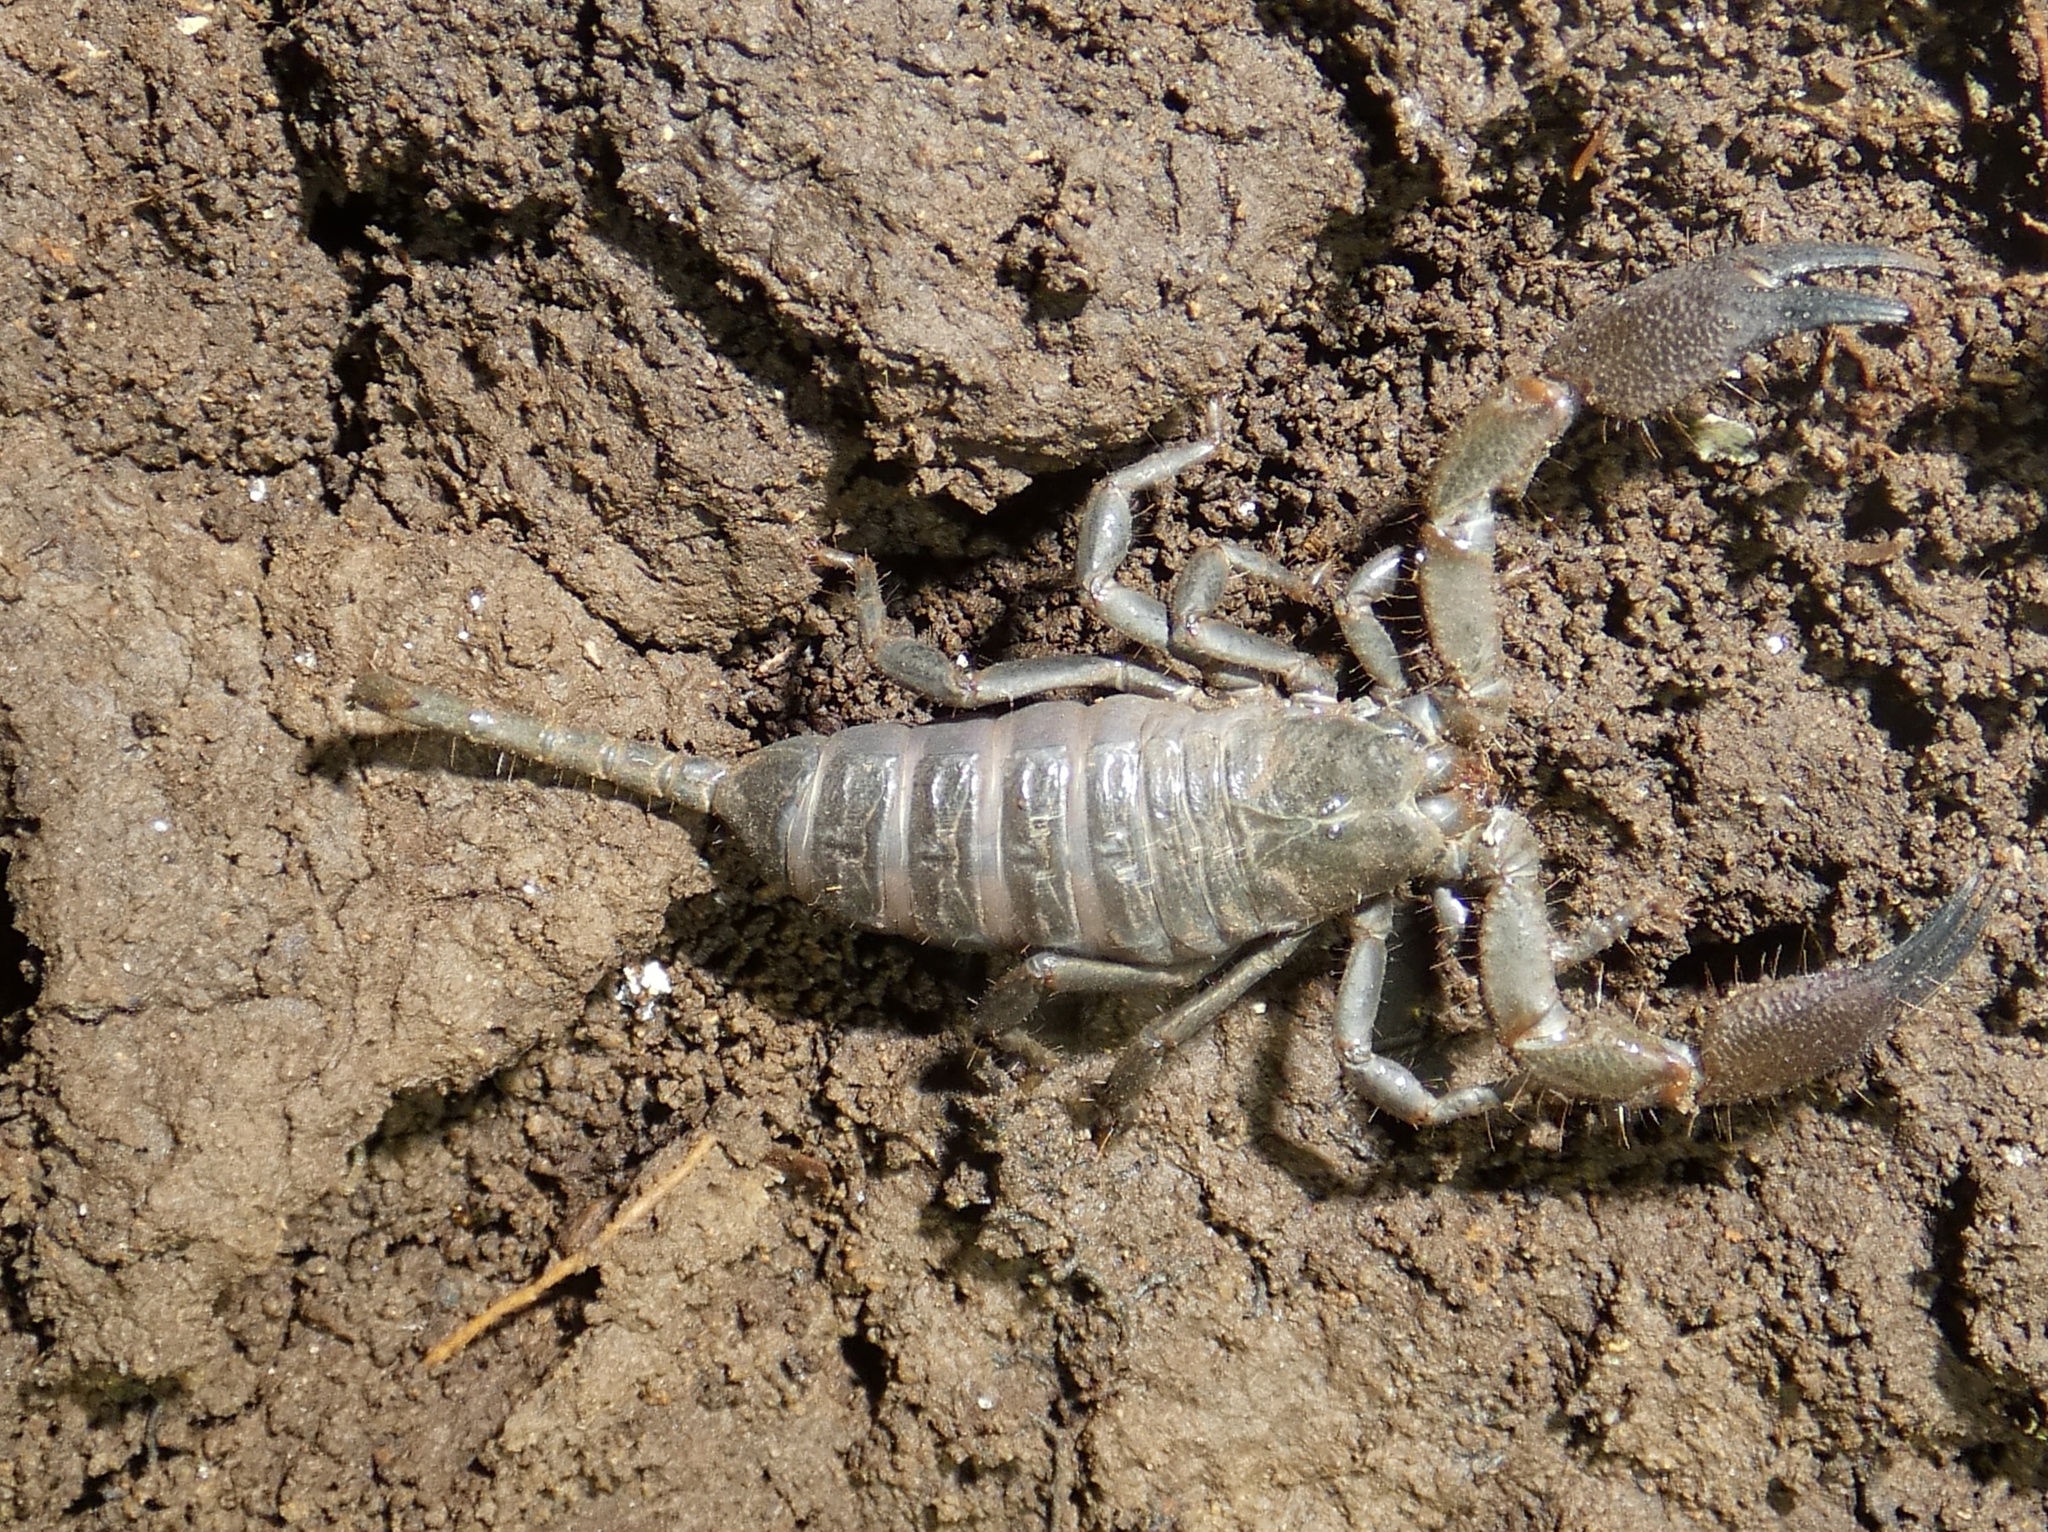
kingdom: Animalia
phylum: Arthropoda
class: Arachnida
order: Scorpiones
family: Hormuridae
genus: Opisthacanthus
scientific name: Opisthacanthus elatus
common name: Scorpions
